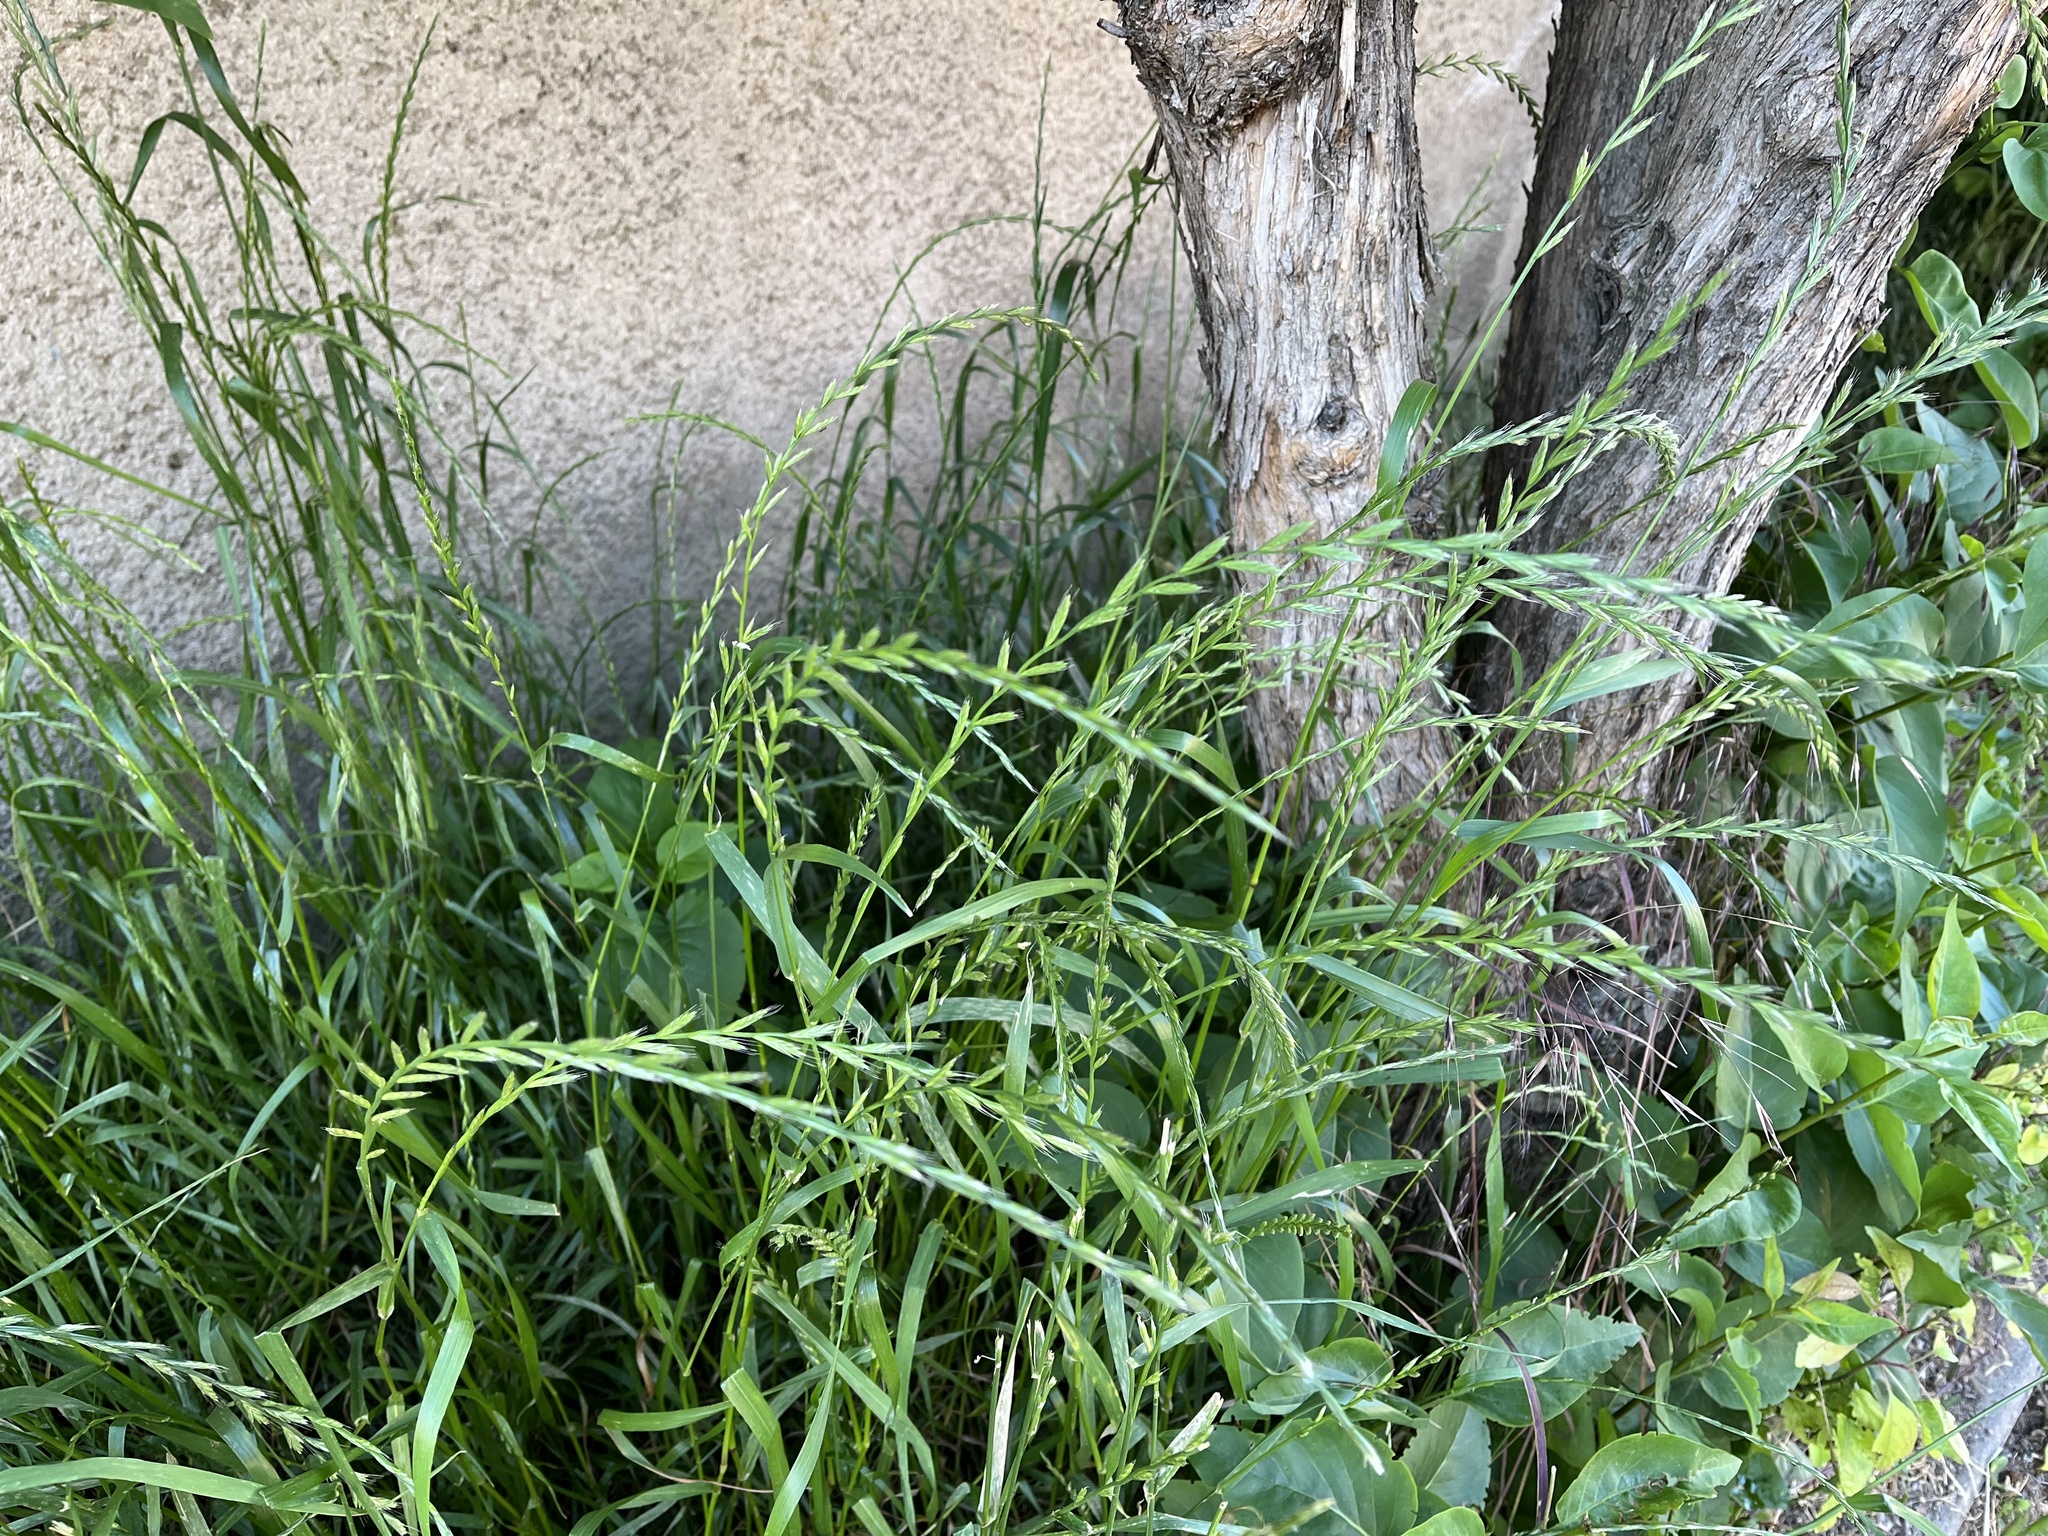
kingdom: Plantae
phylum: Tracheophyta
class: Liliopsida
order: Poales
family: Poaceae
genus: Lolium
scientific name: Lolium multiflorum
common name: Annual ryegrass
